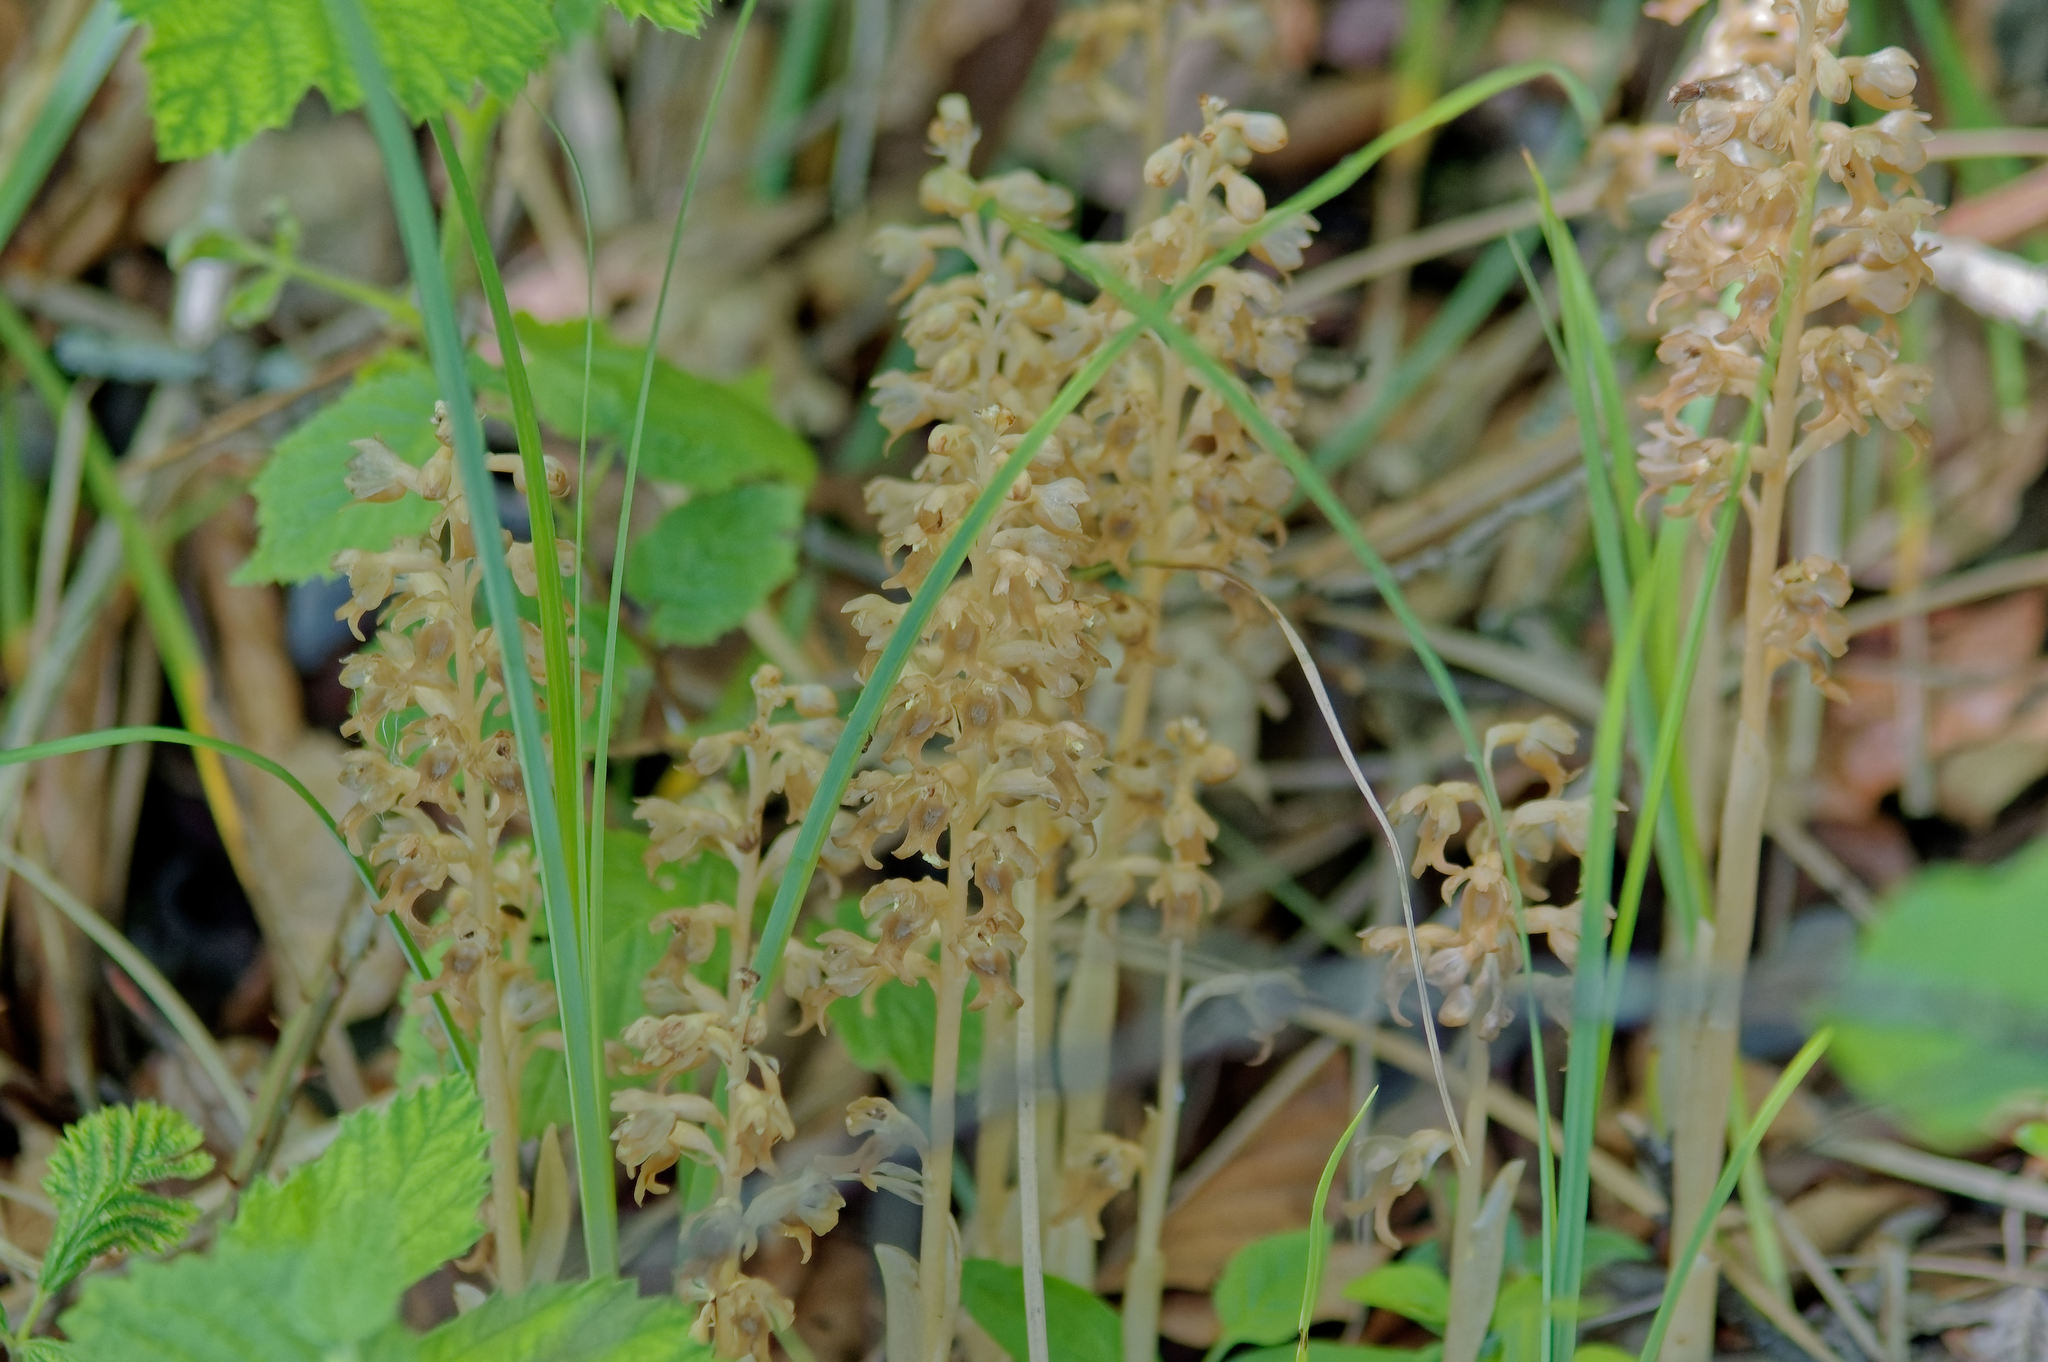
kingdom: Plantae
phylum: Tracheophyta
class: Liliopsida
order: Asparagales
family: Orchidaceae
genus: Neottia
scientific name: Neottia nidus-avis
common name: Bird's-nest orchid
